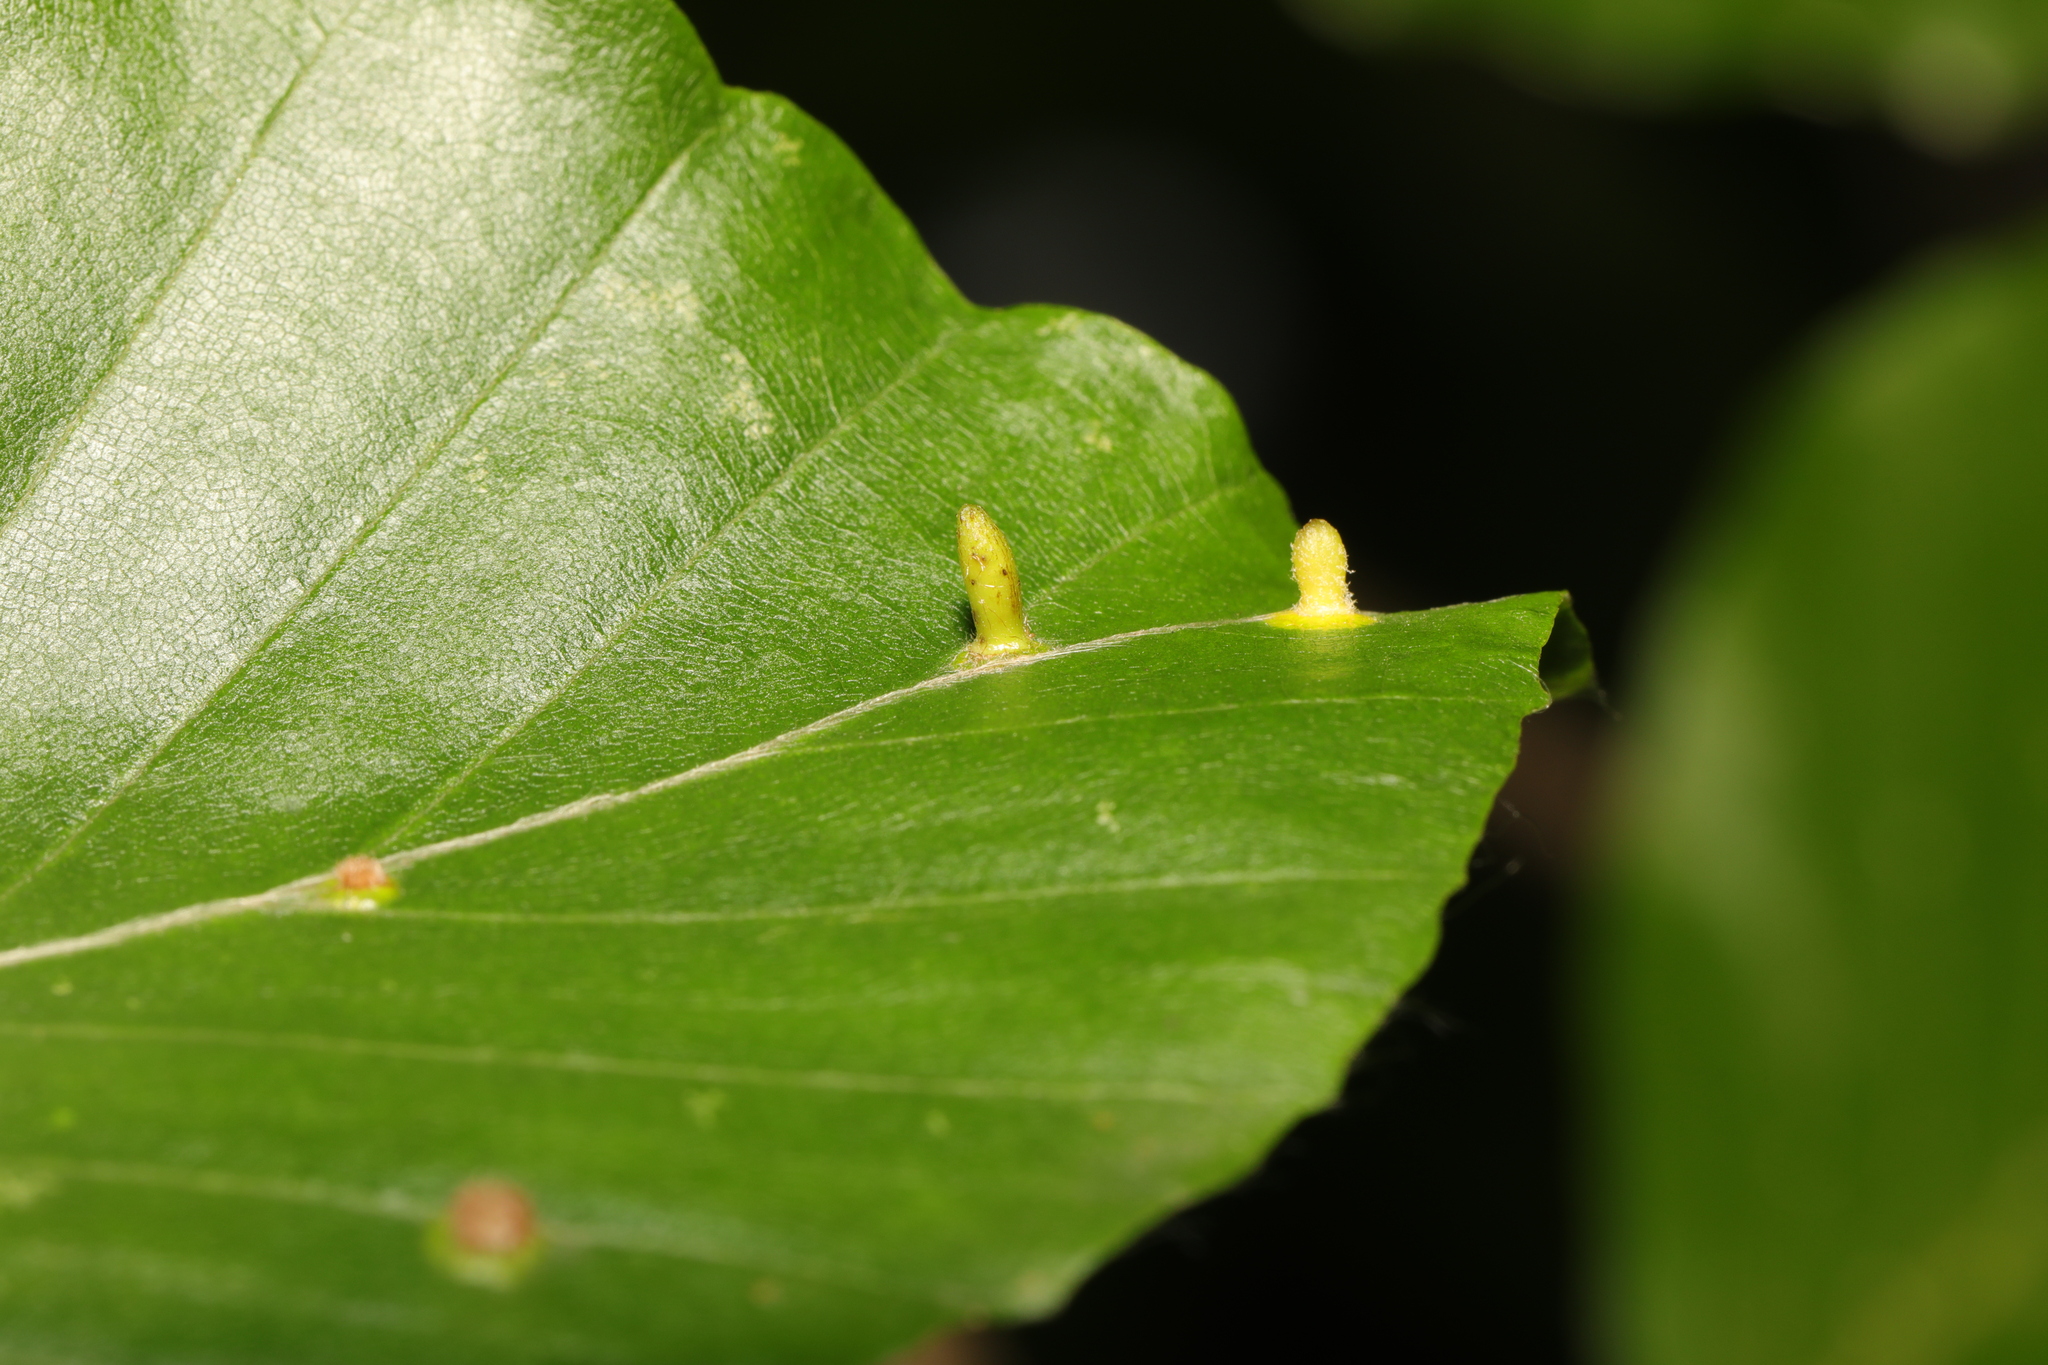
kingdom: Animalia
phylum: Arthropoda
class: Insecta
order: Diptera
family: Cecidomyiidae
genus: Hartigiola
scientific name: Hartigiola annulipes
